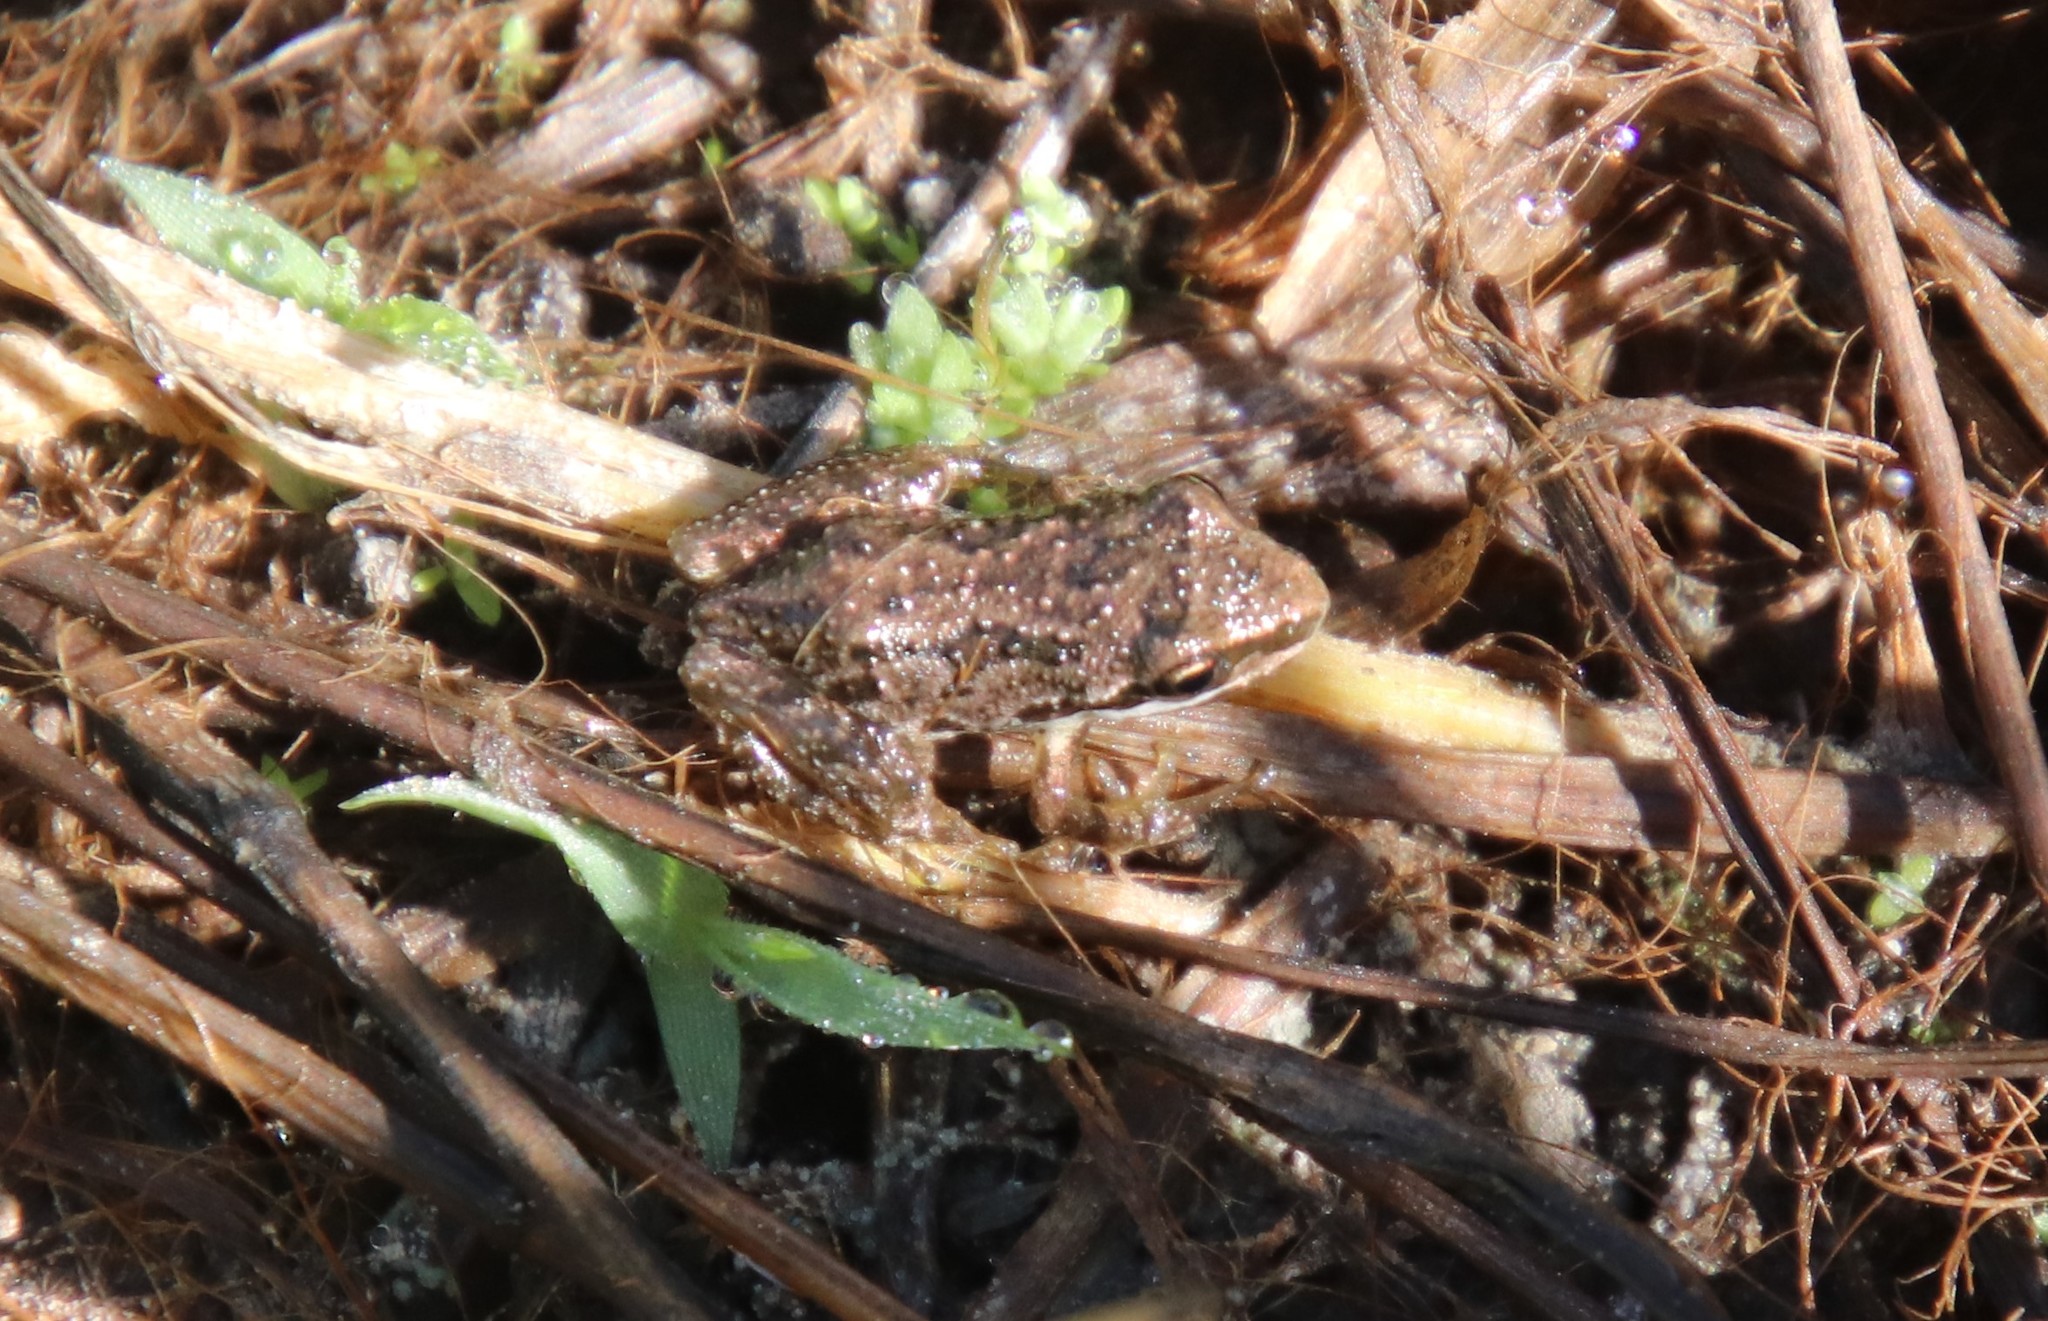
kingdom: Animalia
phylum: Chordata
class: Amphibia
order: Anura
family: Hylidae
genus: Pseudacris
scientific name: Pseudacris regilla
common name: Pacific chorus frog
